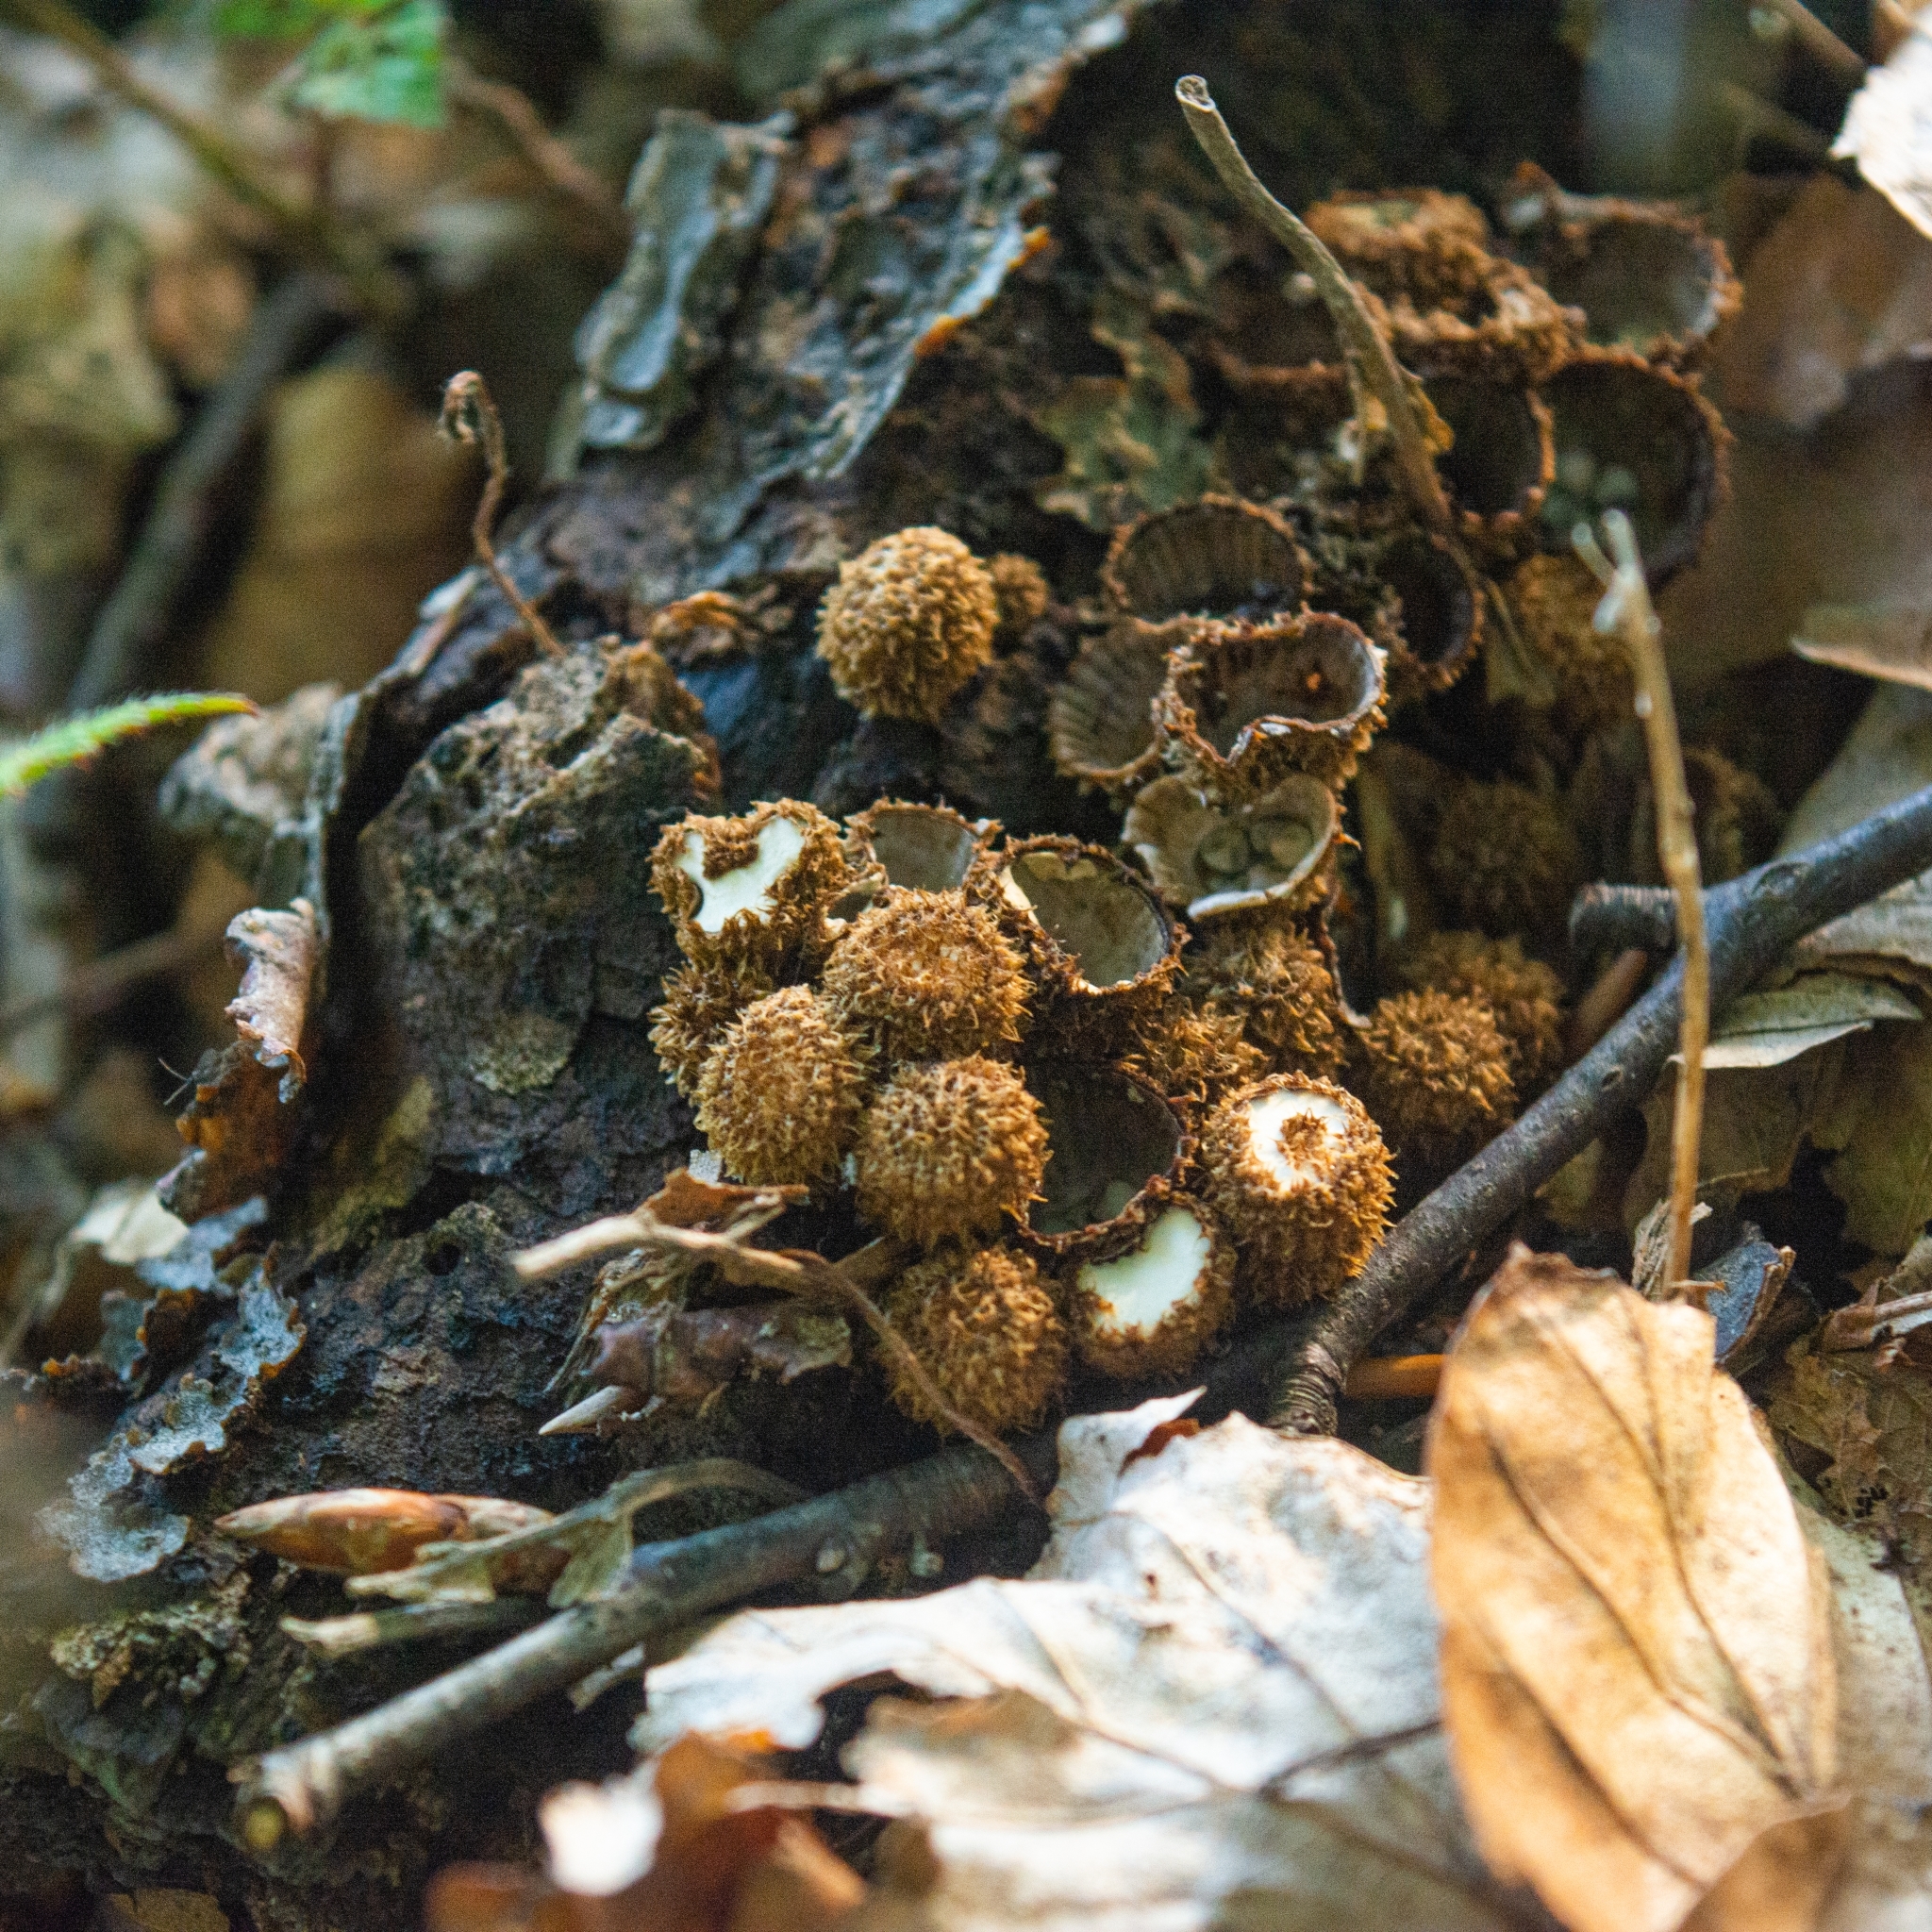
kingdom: Fungi
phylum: Basidiomycota
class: Agaricomycetes
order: Agaricales
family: Agaricaceae
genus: Cyathus
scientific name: Cyathus striatus
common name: Fluted bird's nest
